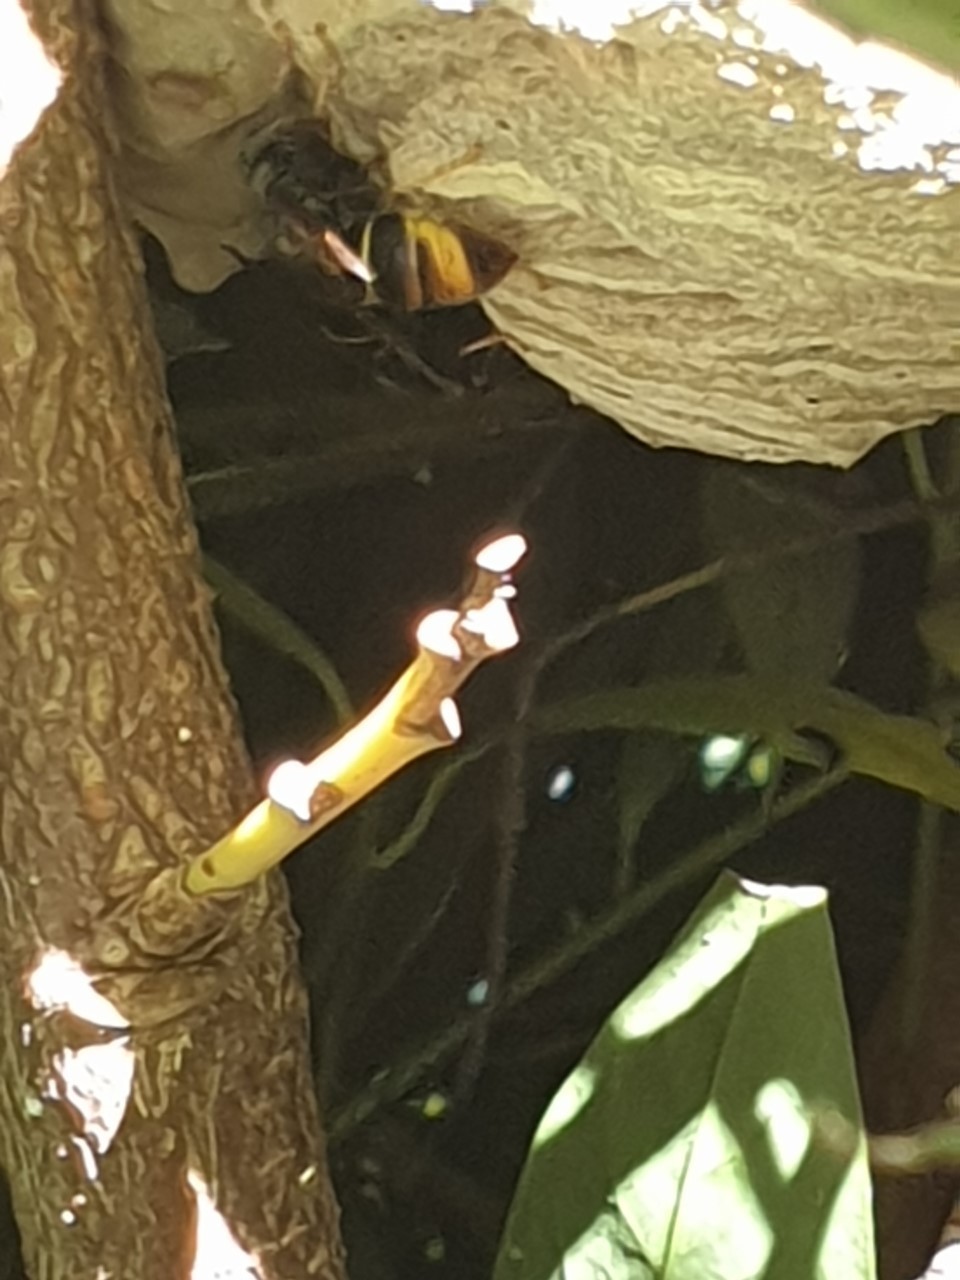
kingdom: Animalia
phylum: Arthropoda
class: Insecta
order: Hymenoptera
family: Vespidae
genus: Vespa
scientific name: Vespa velutina
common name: Asian hornet
